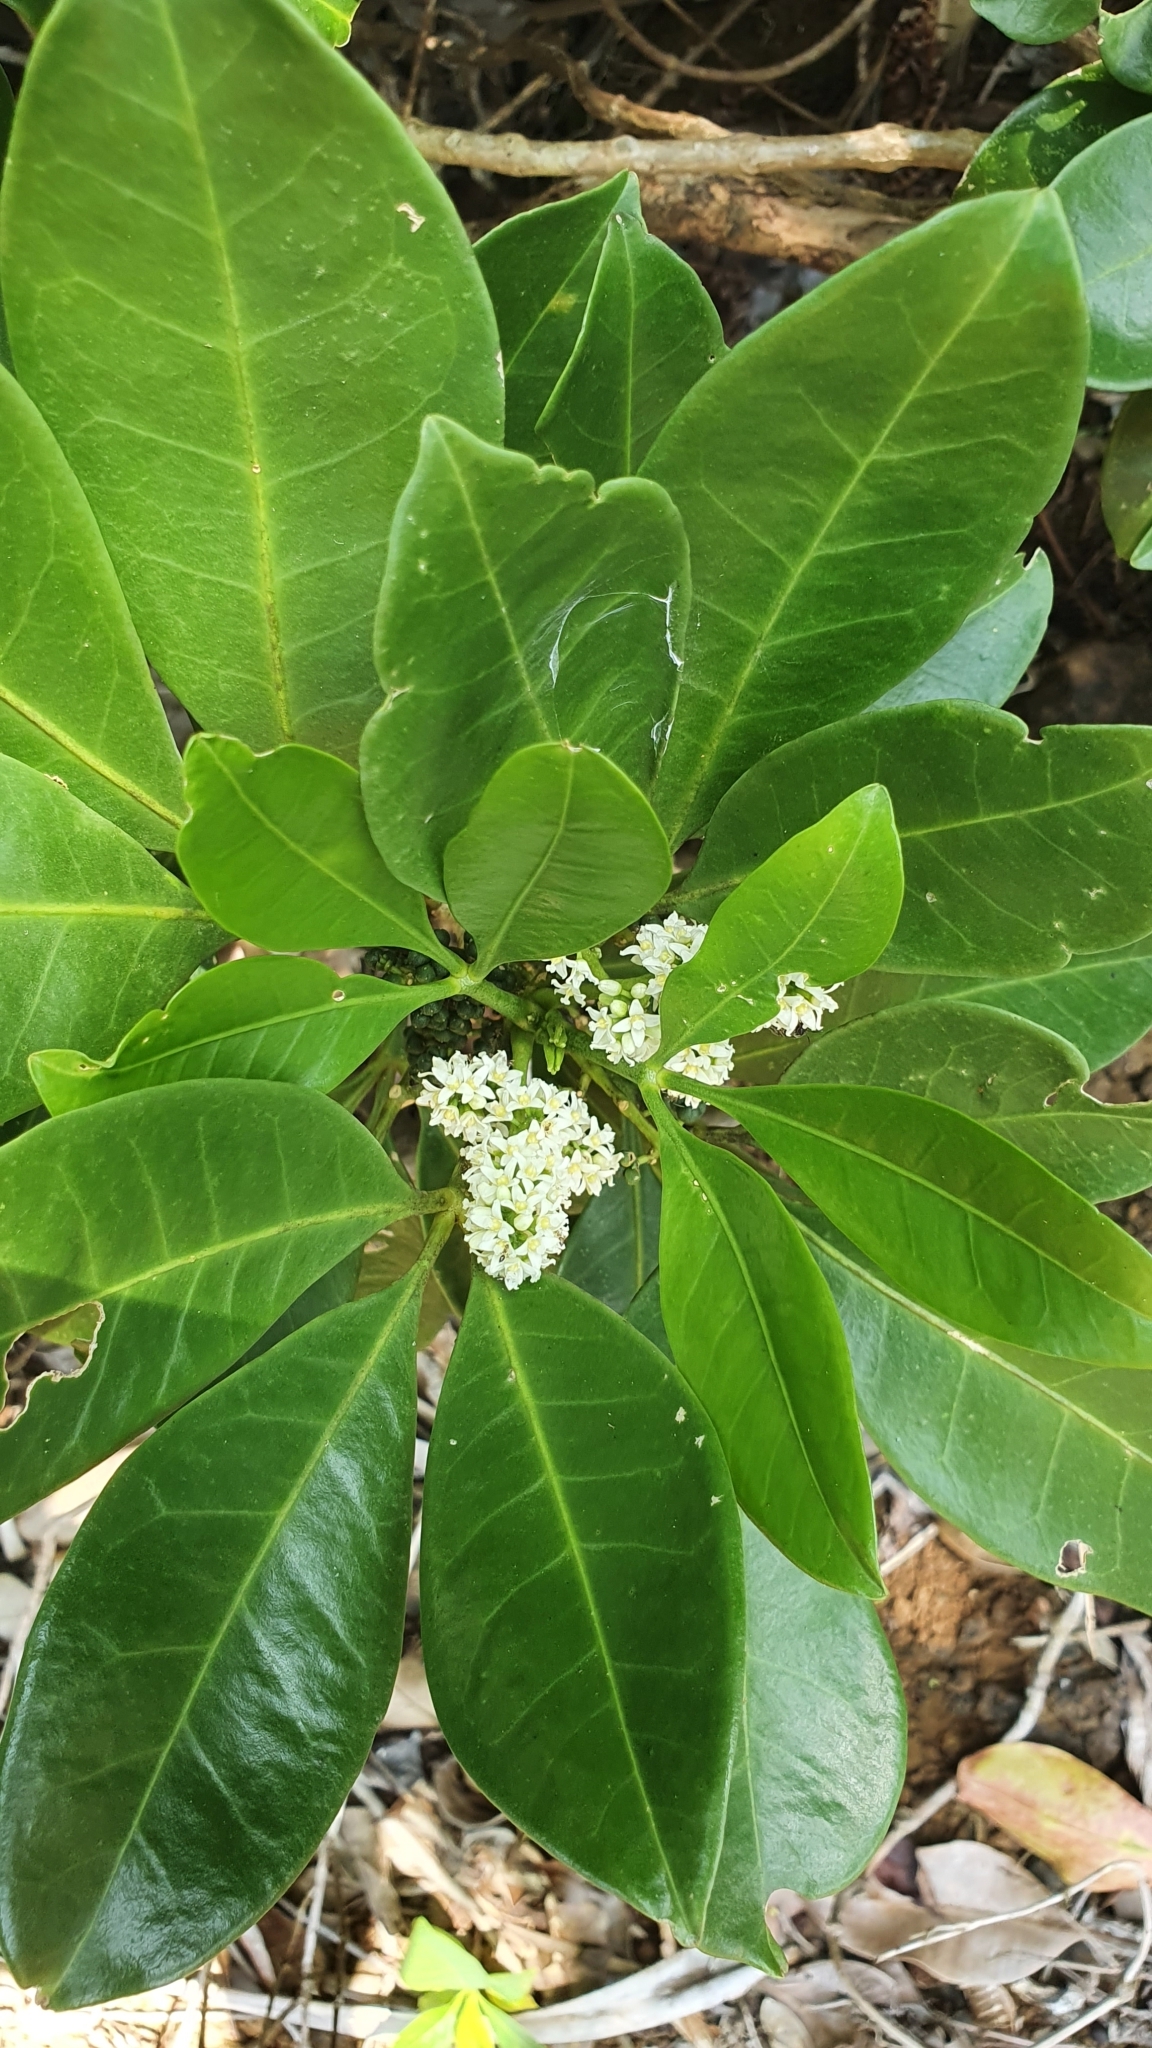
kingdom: Plantae
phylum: Tracheophyta
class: Magnoliopsida
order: Sapindales
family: Rutaceae
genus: Melicope
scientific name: Melicope triphylla
